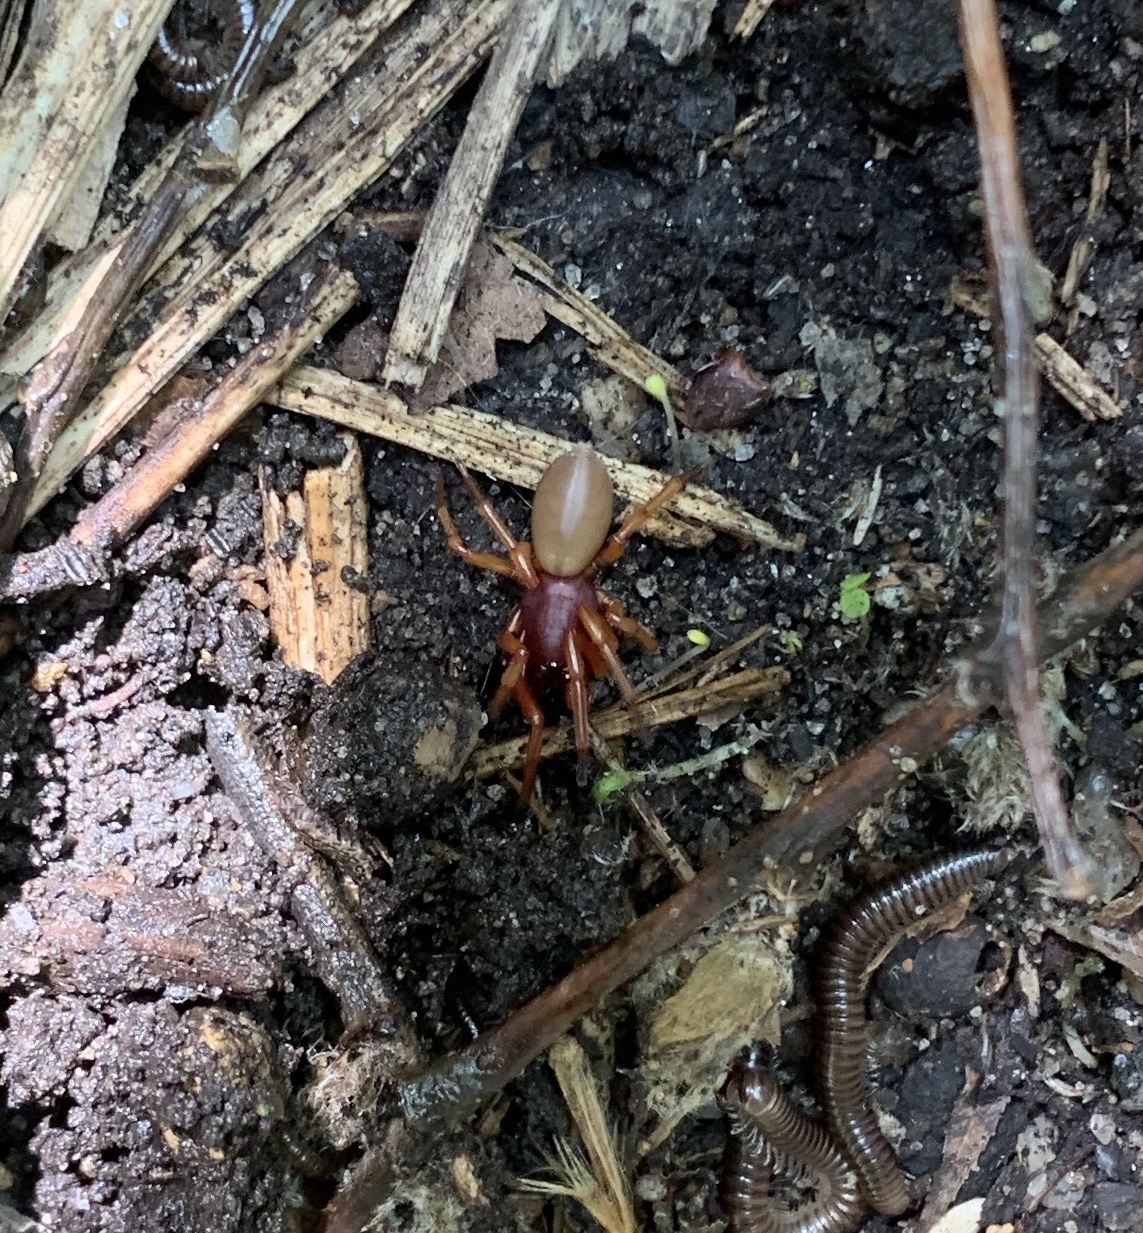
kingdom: Animalia
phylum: Arthropoda
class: Arachnida
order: Araneae
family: Dysderidae
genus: Dysdera
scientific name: Dysdera crocata
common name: Woodlouse spider
